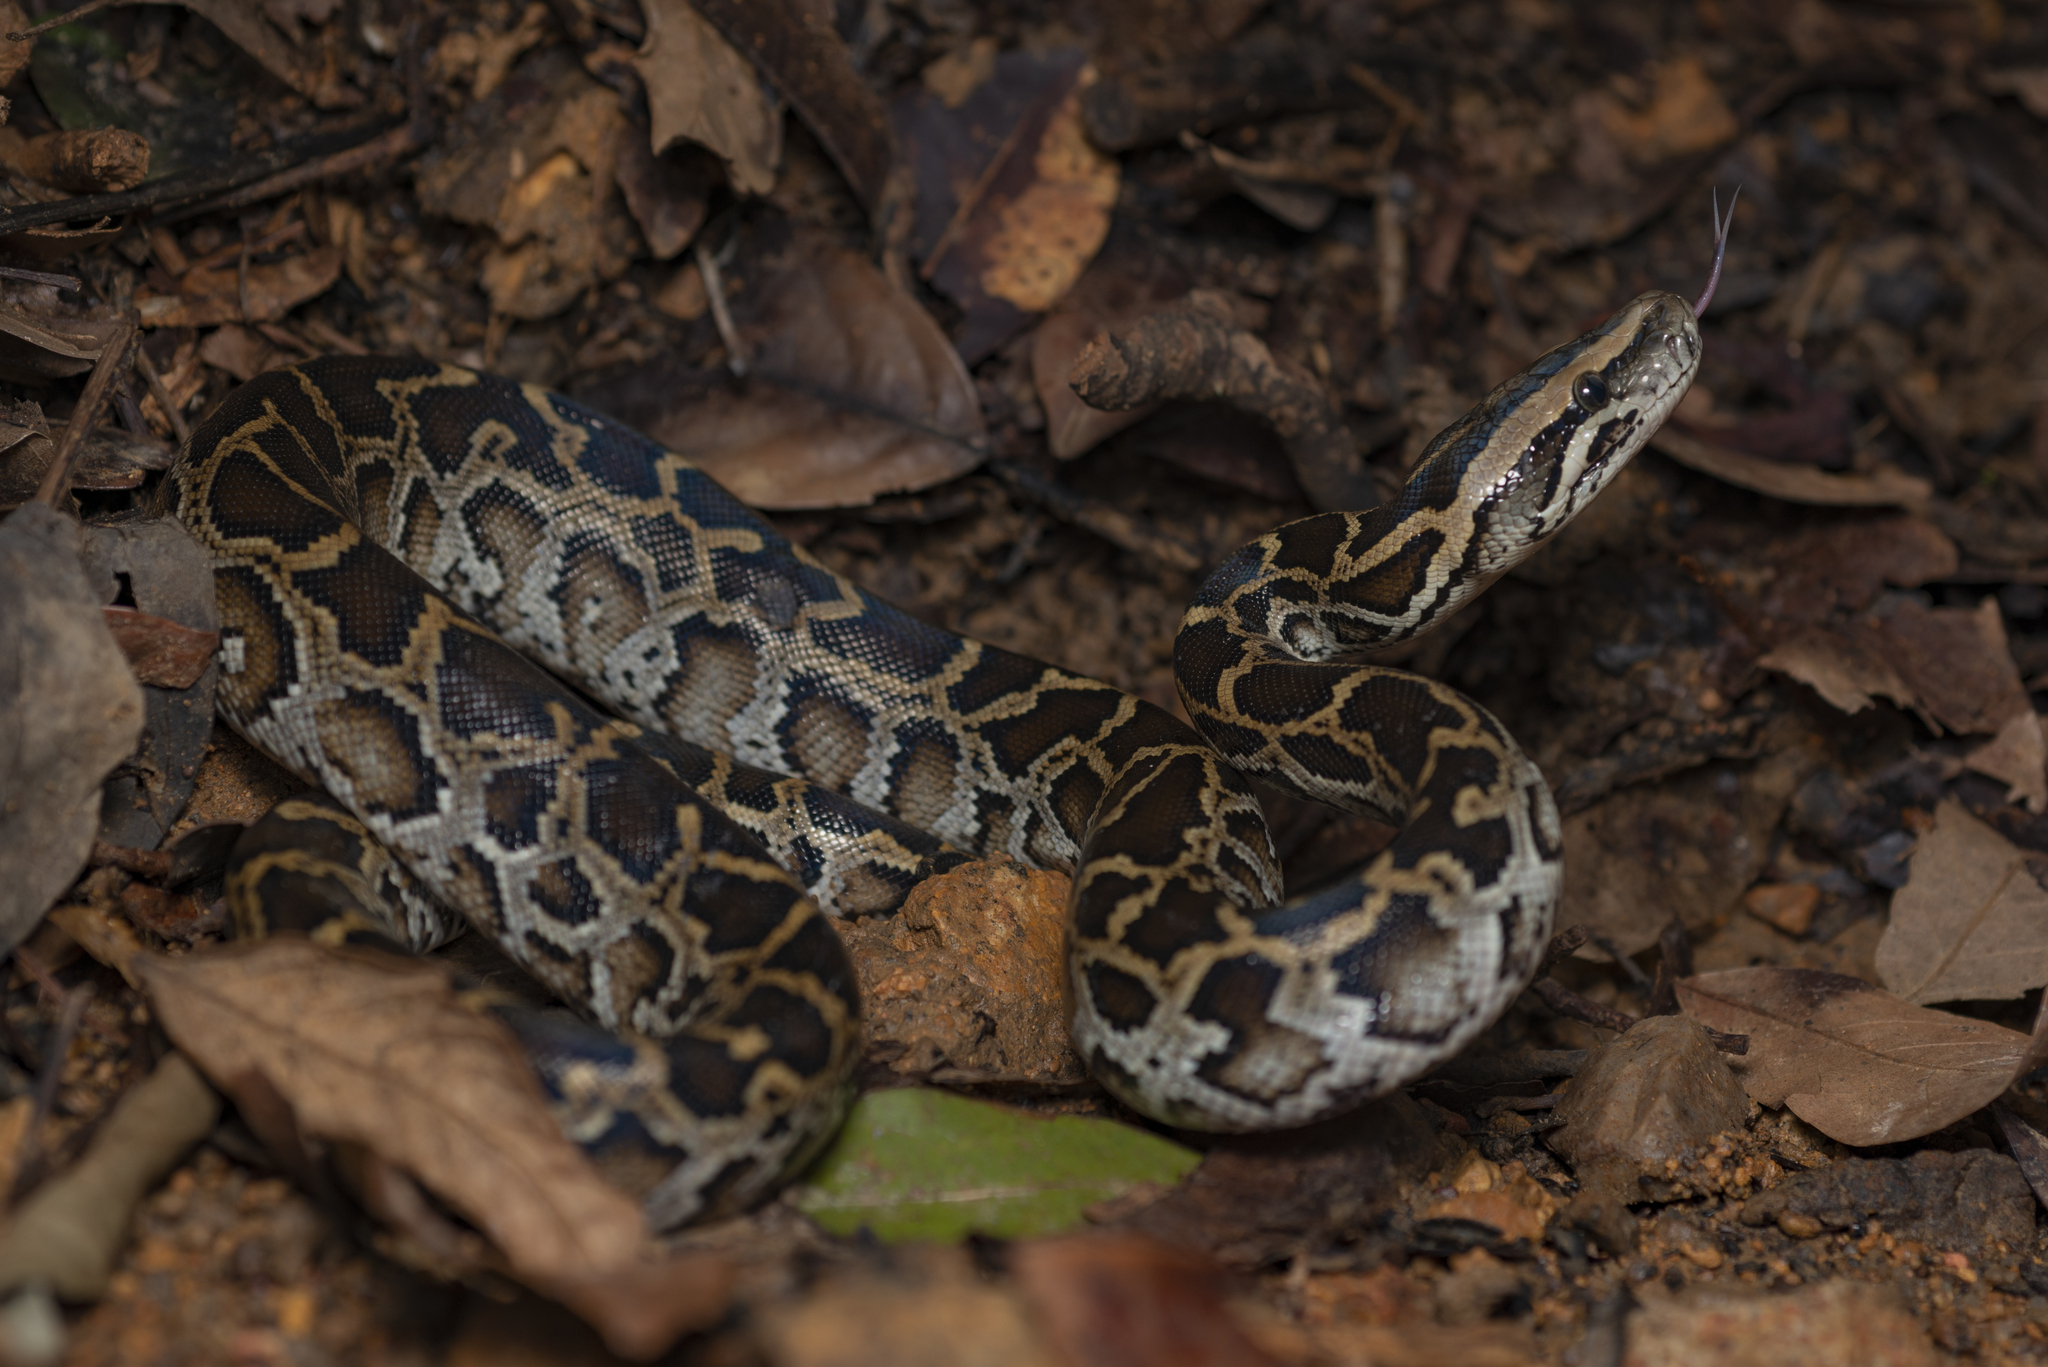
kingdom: Animalia
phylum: Chordata
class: Squamata
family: Pythonidae
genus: Python
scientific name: Python bivittatus
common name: Burmese python
